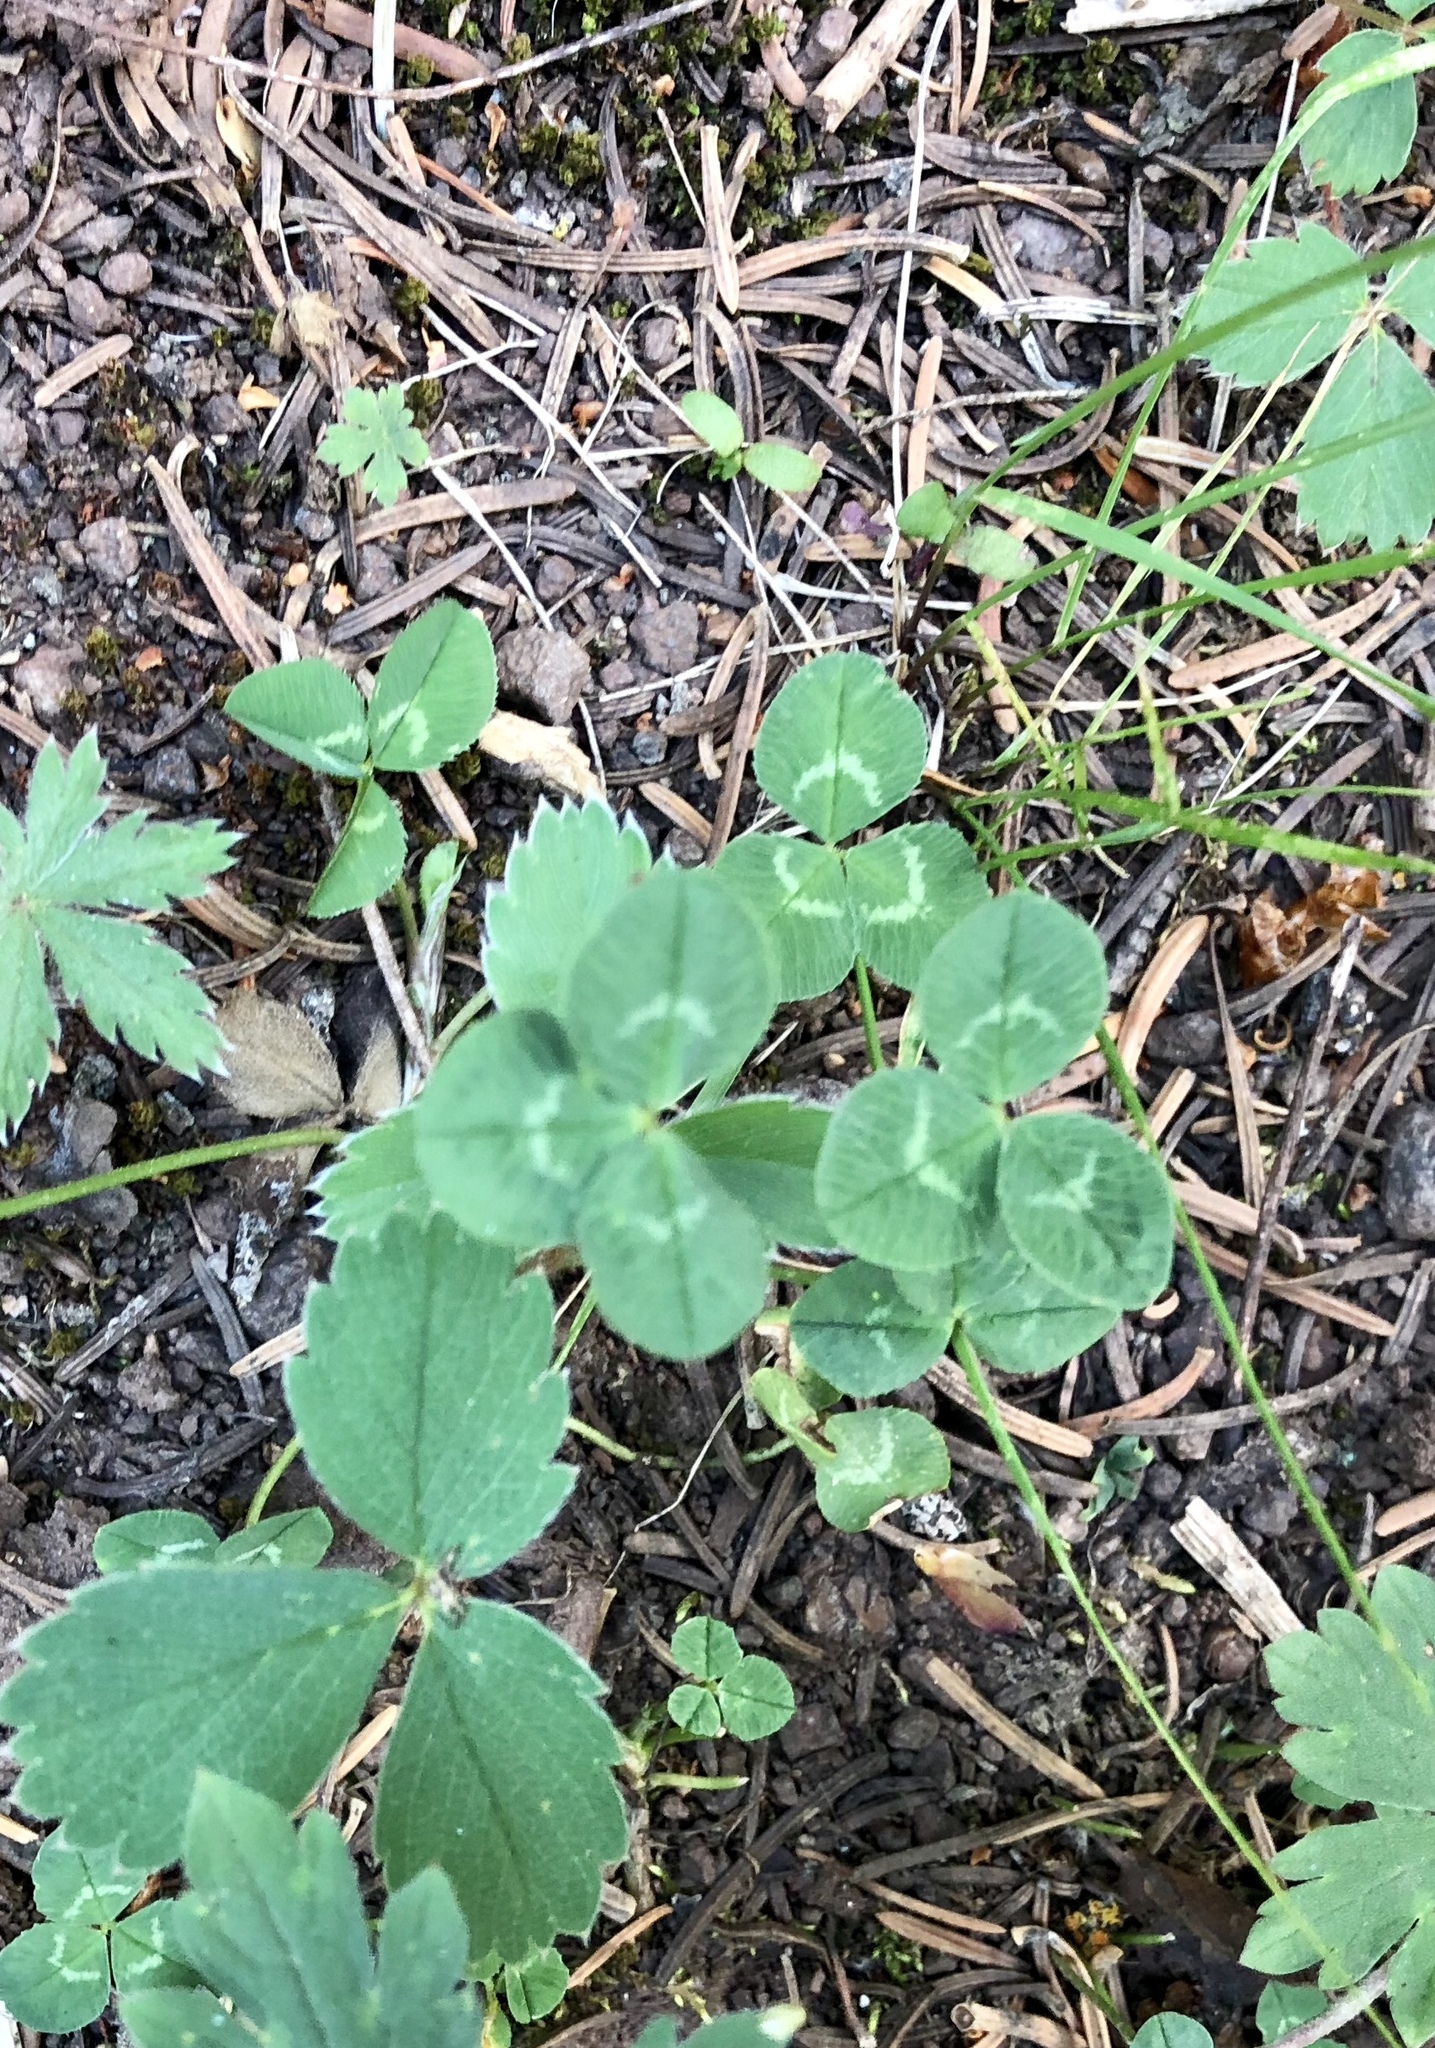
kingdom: Plantae
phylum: Tracheophyta
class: Magnoliopsida
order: Fabales
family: Fabaceae
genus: Trifolium
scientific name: Trifolium repens
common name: White clover
